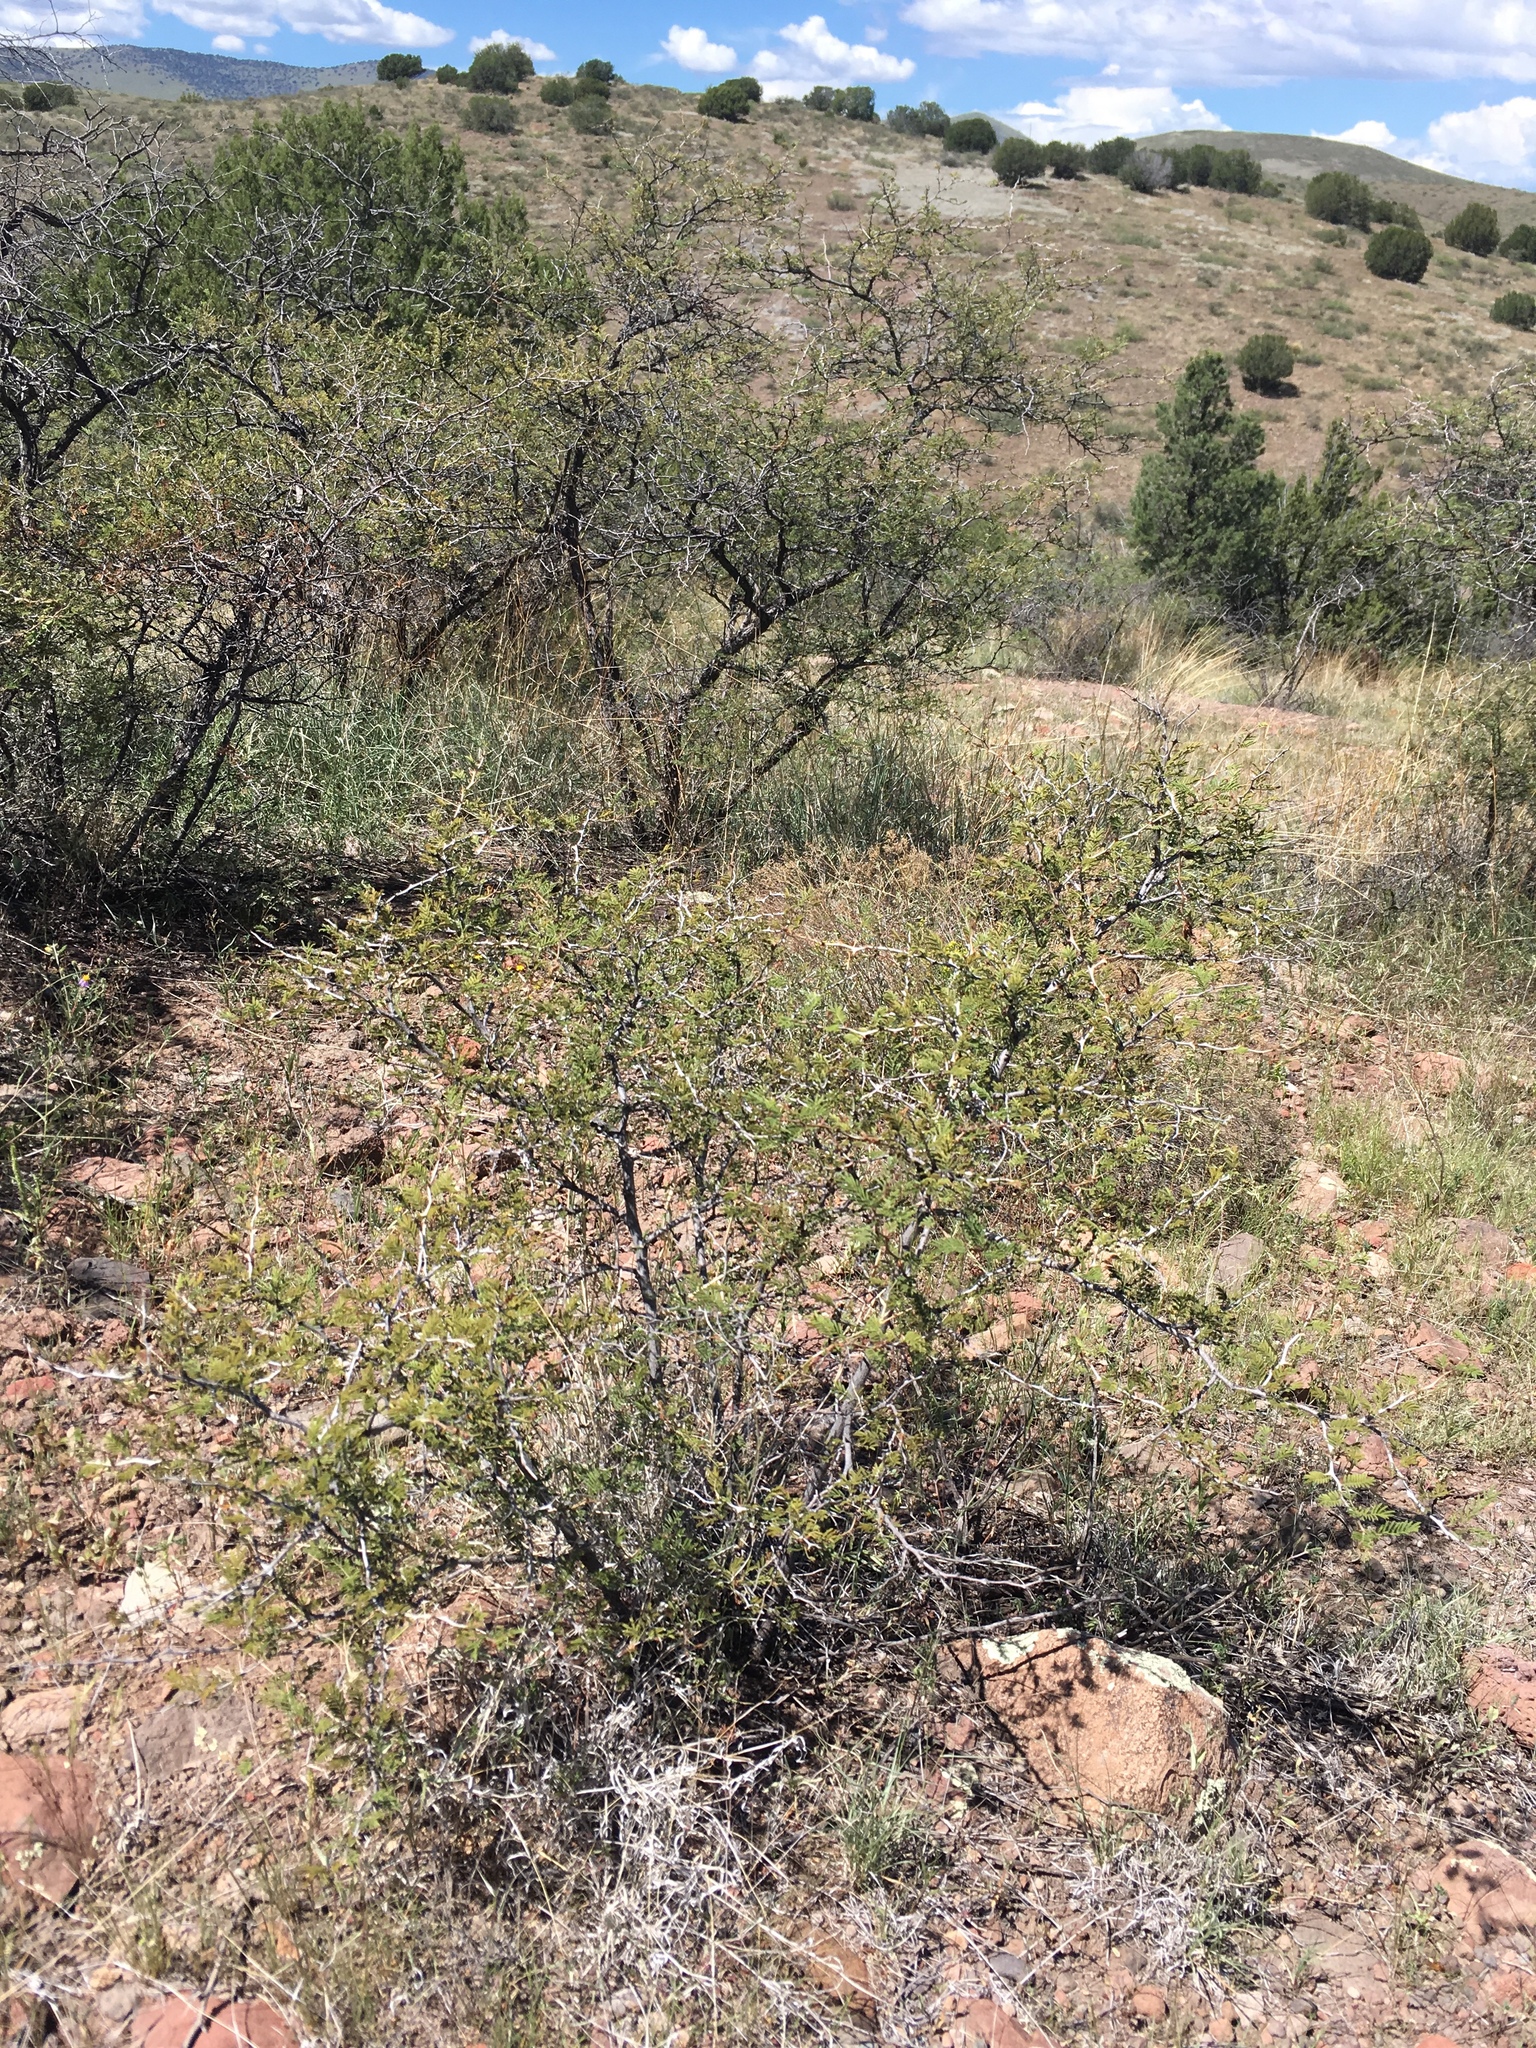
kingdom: Plantae
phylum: Tracheophyta
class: Magnoliopsida
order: Fabales
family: Fabaceae
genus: Mimosa
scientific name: Mimosa biuncifera
